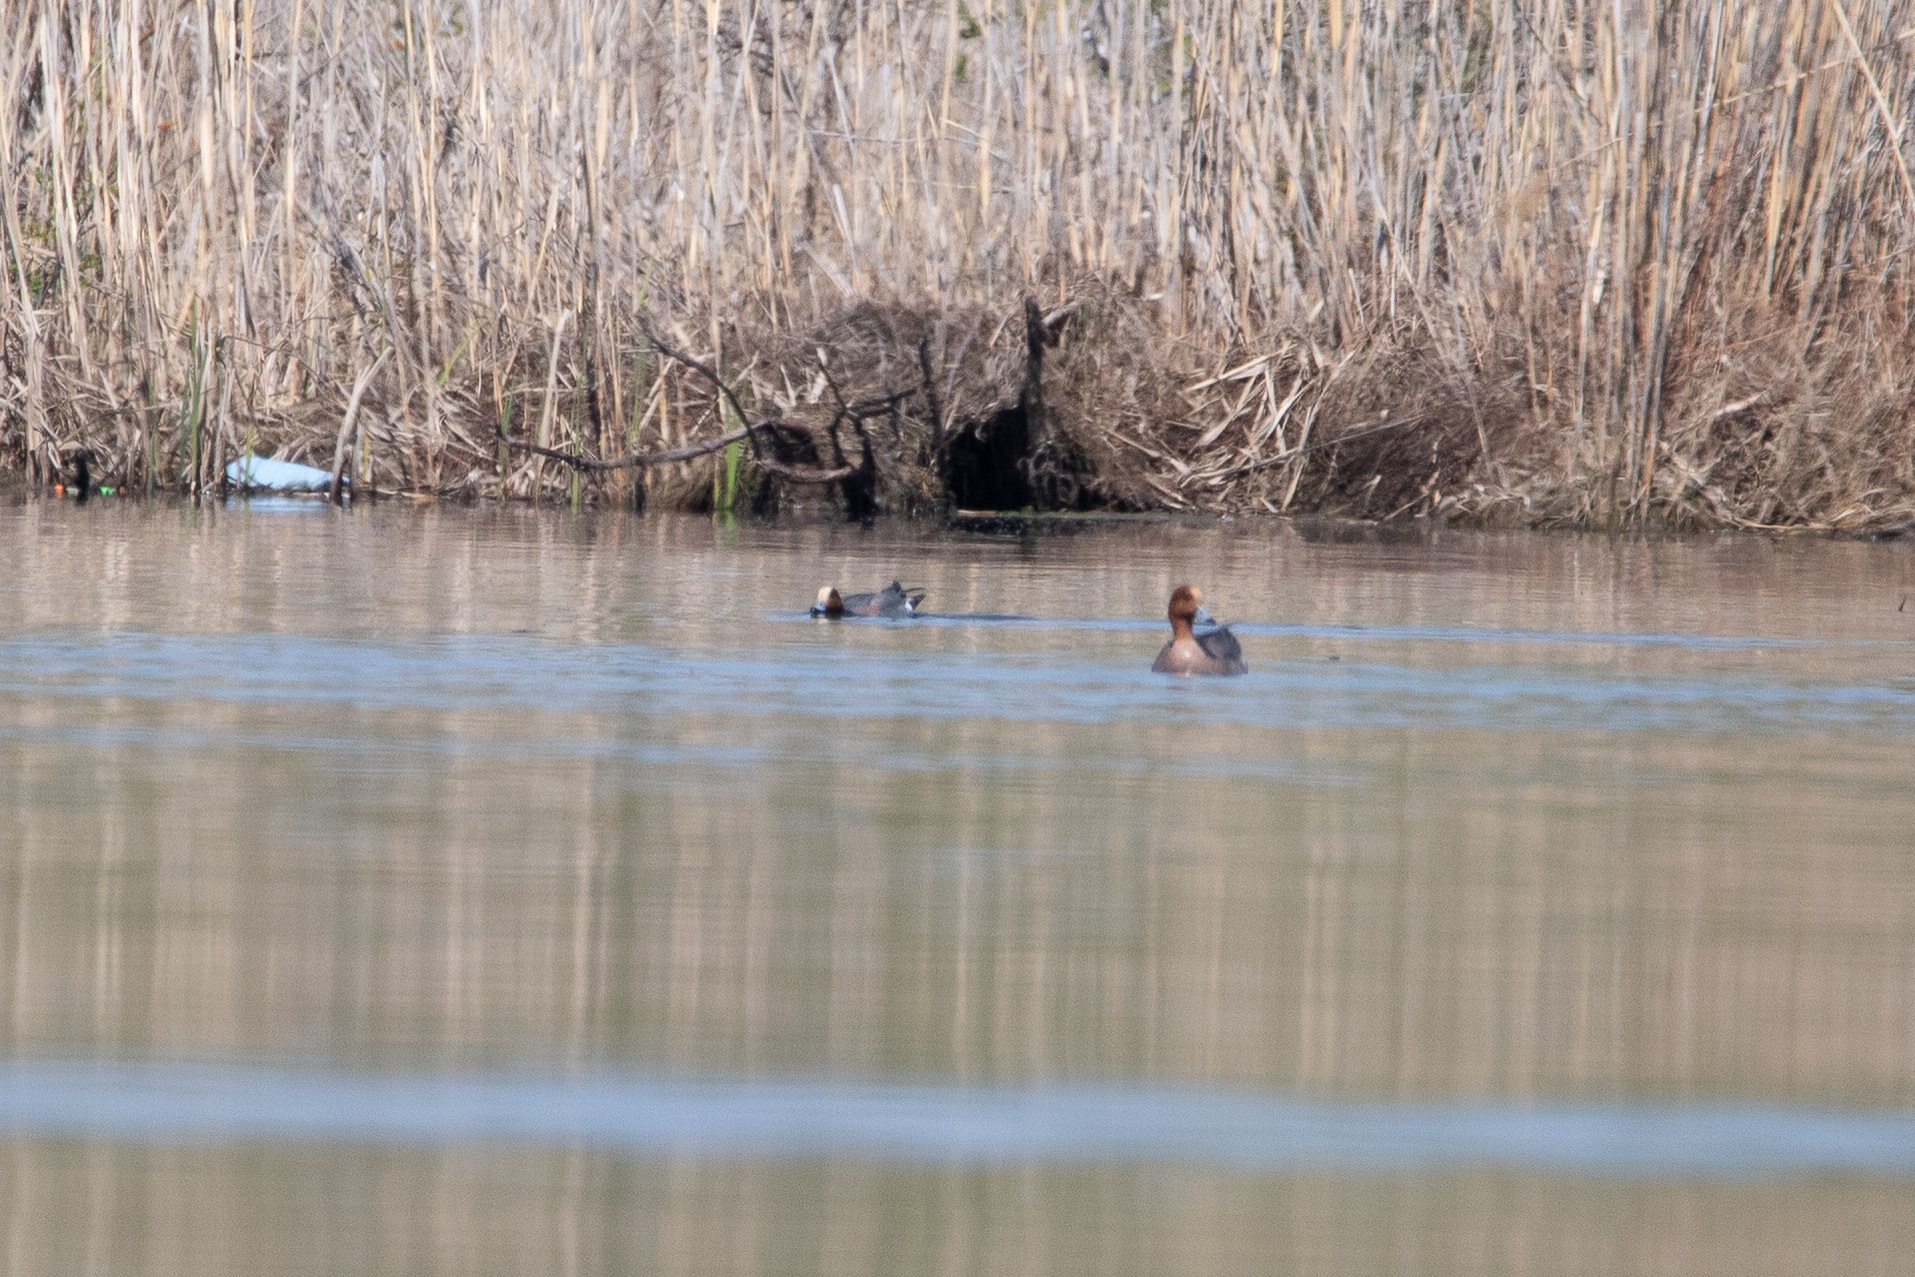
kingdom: Animalia
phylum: Chordata
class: Aves
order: Anseriformes
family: Anatidae
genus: Mareca
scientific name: Mareca penelope
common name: Eurasian wigeon
